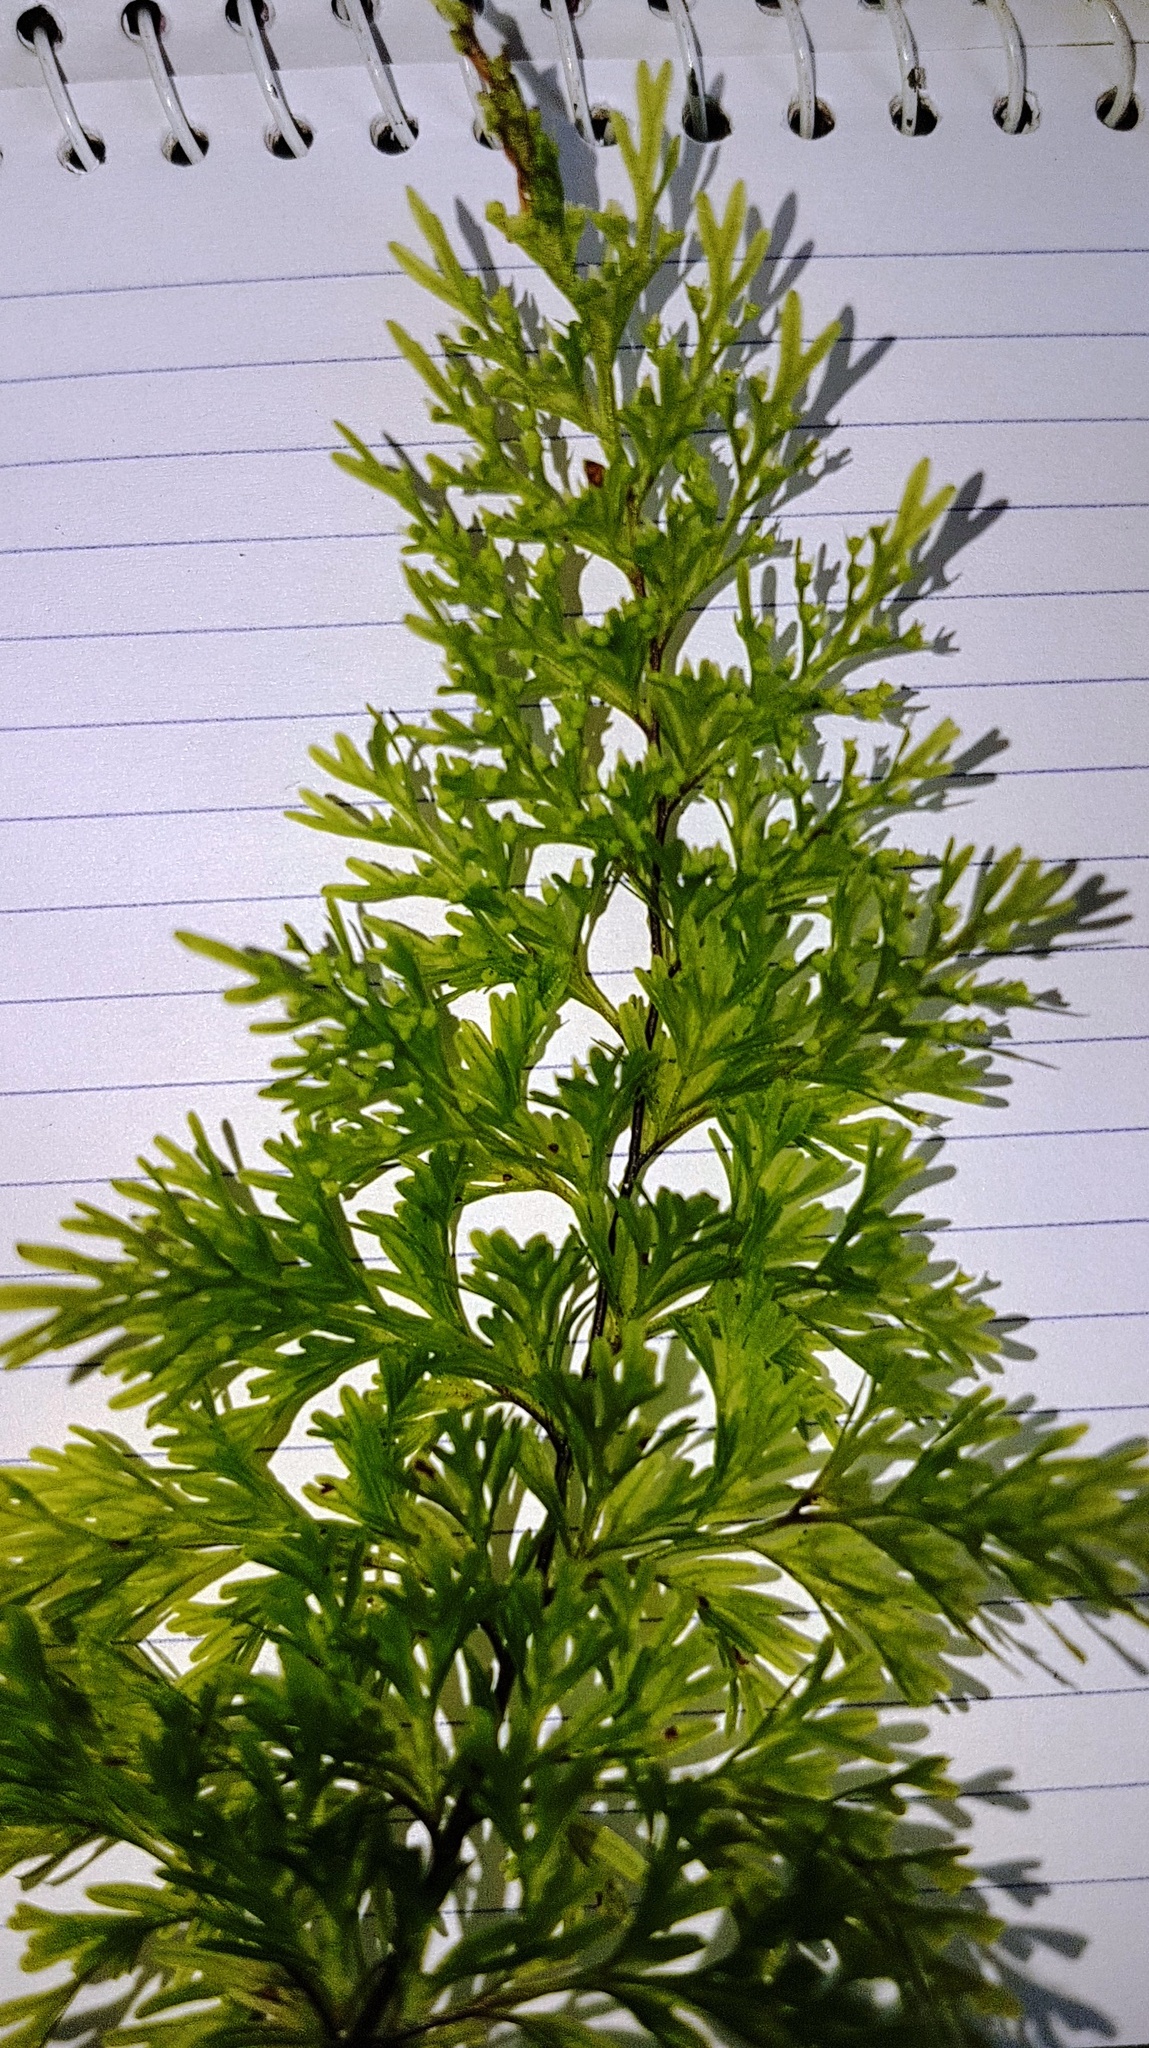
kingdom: Plantae
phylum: Tracheophyta
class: Polypodiopsida
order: Hymenophyllales
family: Hymenophyllaceae
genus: Hymenophyllum
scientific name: Hymenophyllum demissum
